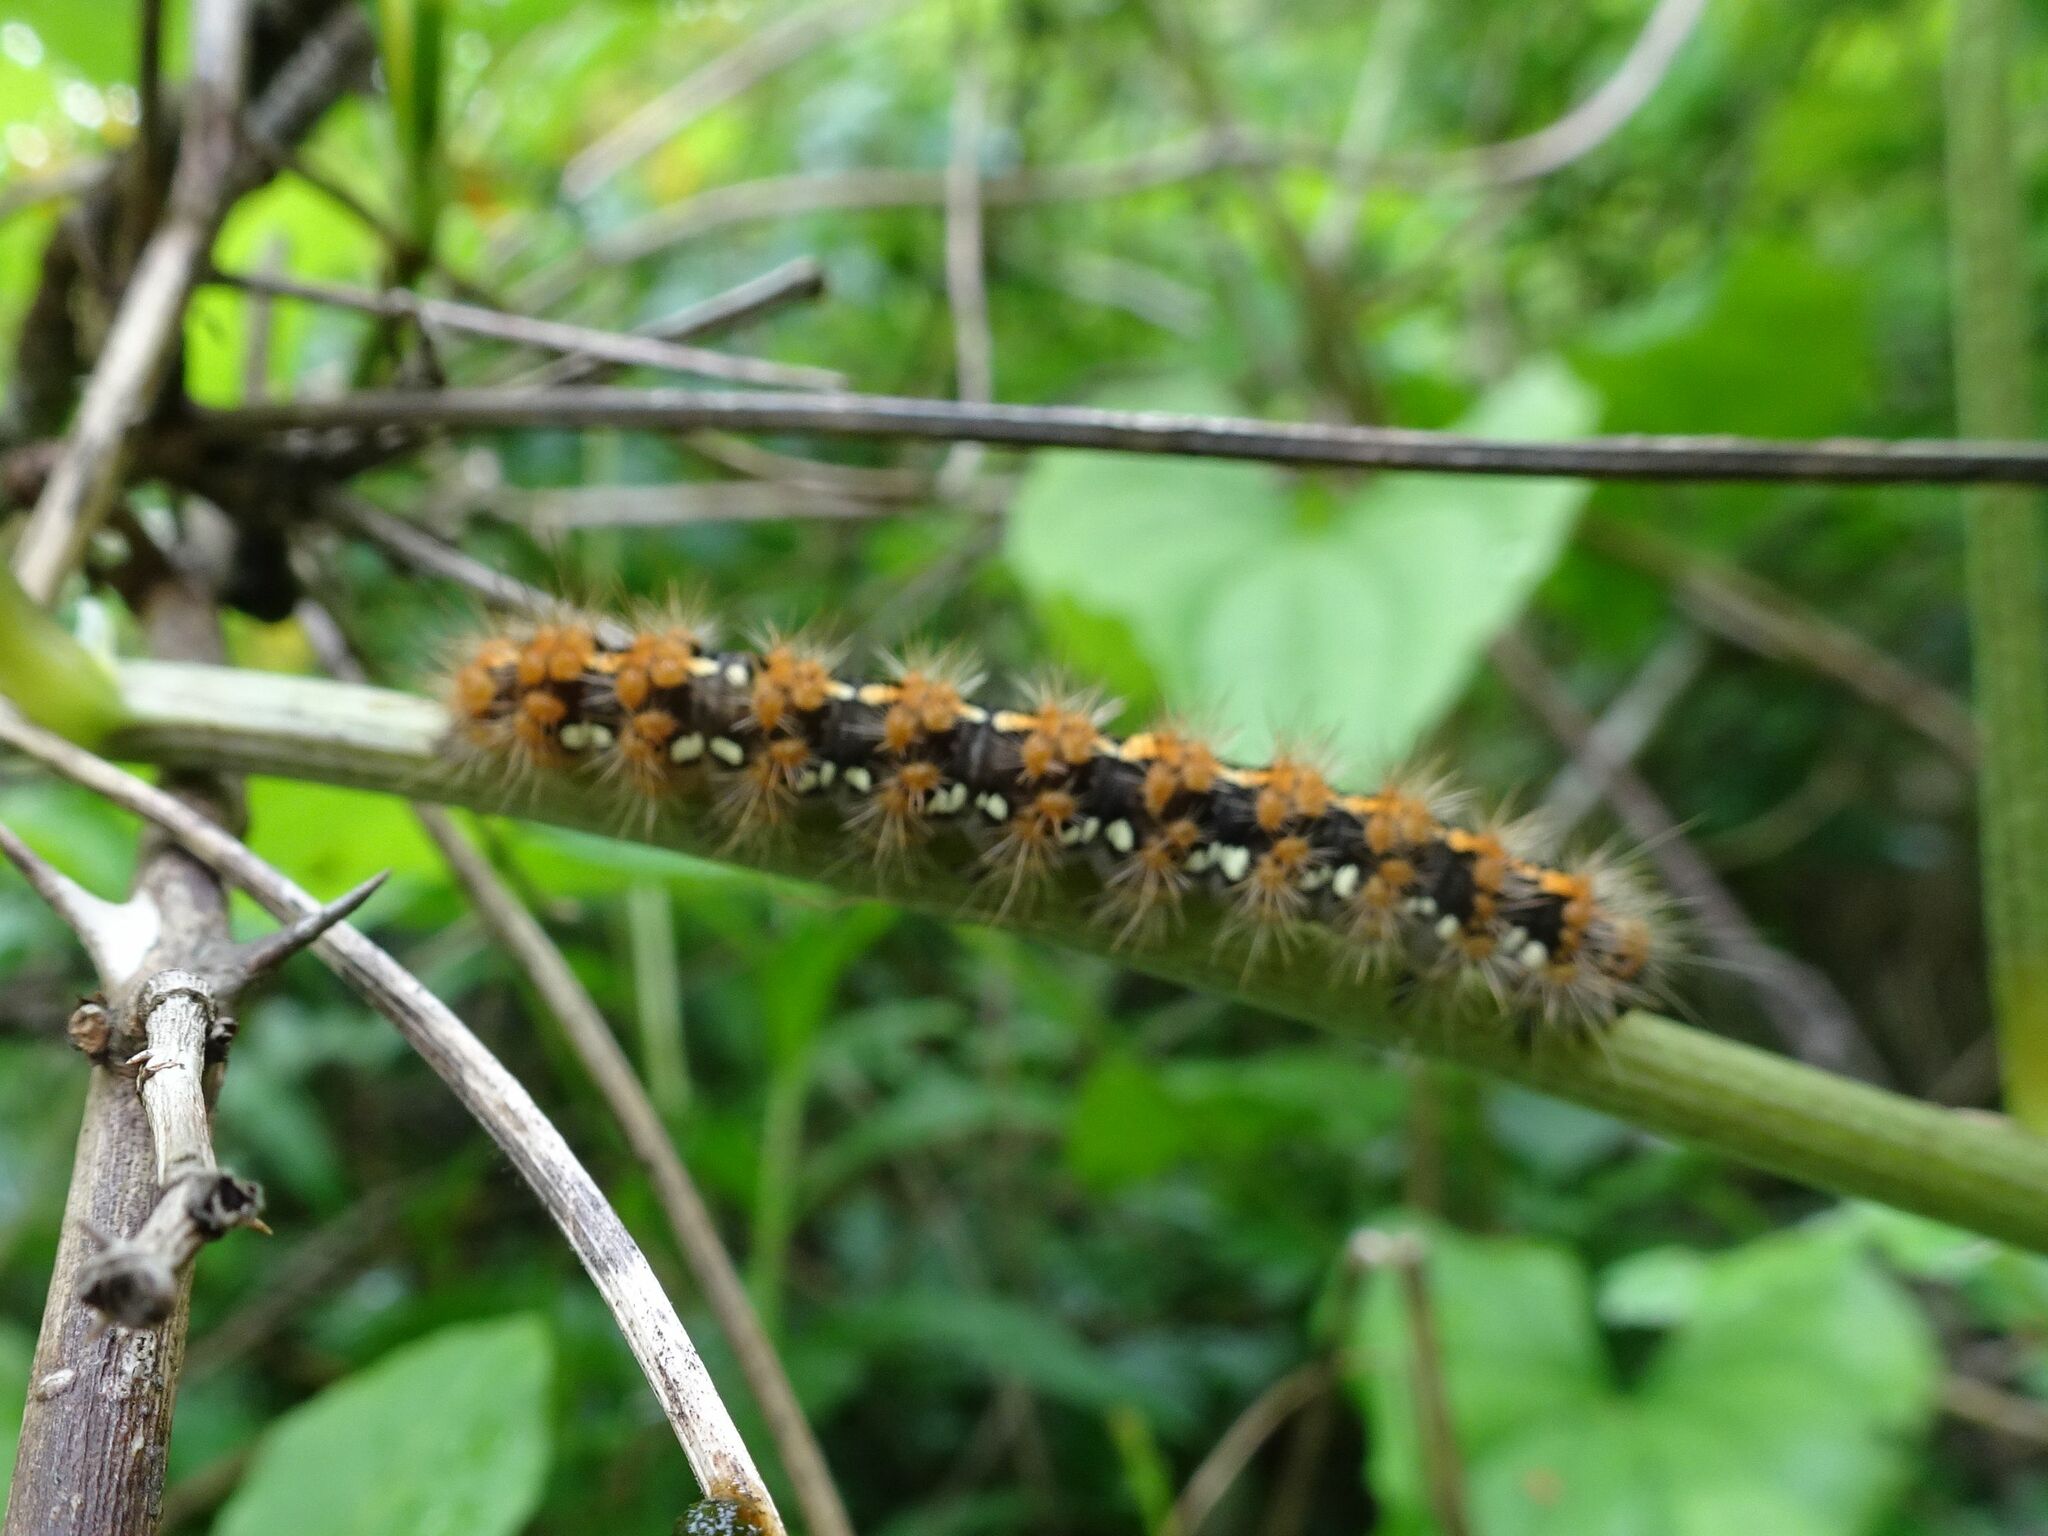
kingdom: Animalia
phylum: Arthropoda
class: Insecta
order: Lepidoptera
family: Erebidae
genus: Euplagia
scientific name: Euplagia quadripunctaria
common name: Jersey tiger
